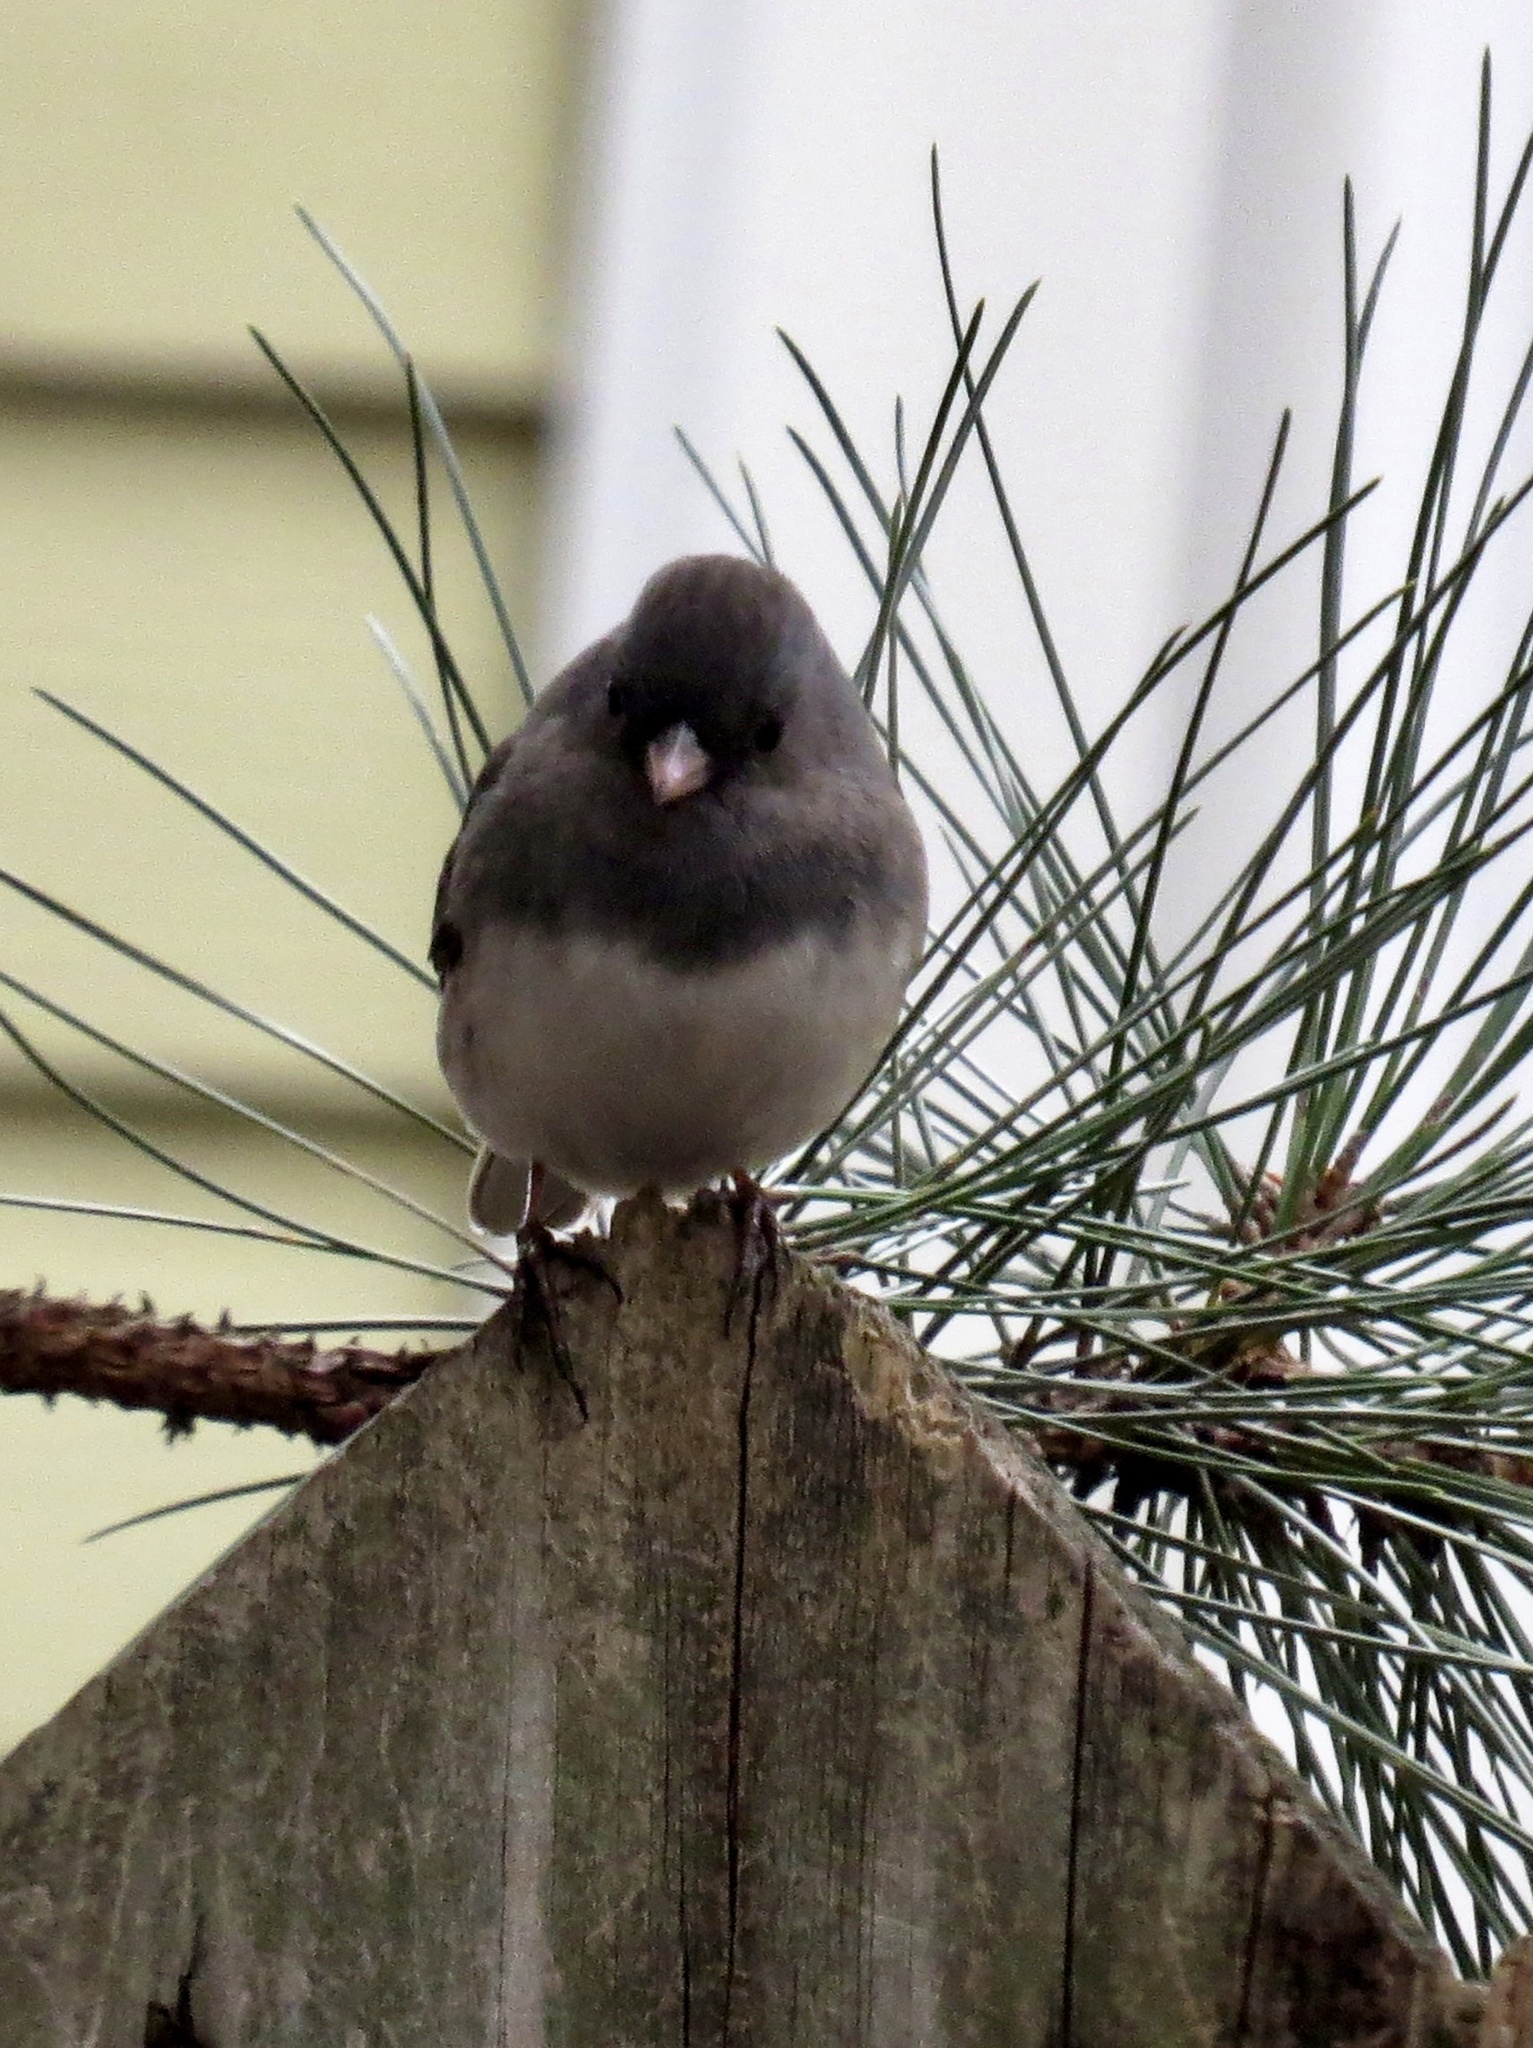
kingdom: Animalia
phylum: Chordata
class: Aves
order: Passeriformes
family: Passerellidae
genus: Junco
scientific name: Junco hyemalis
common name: Dark-eyed junco
